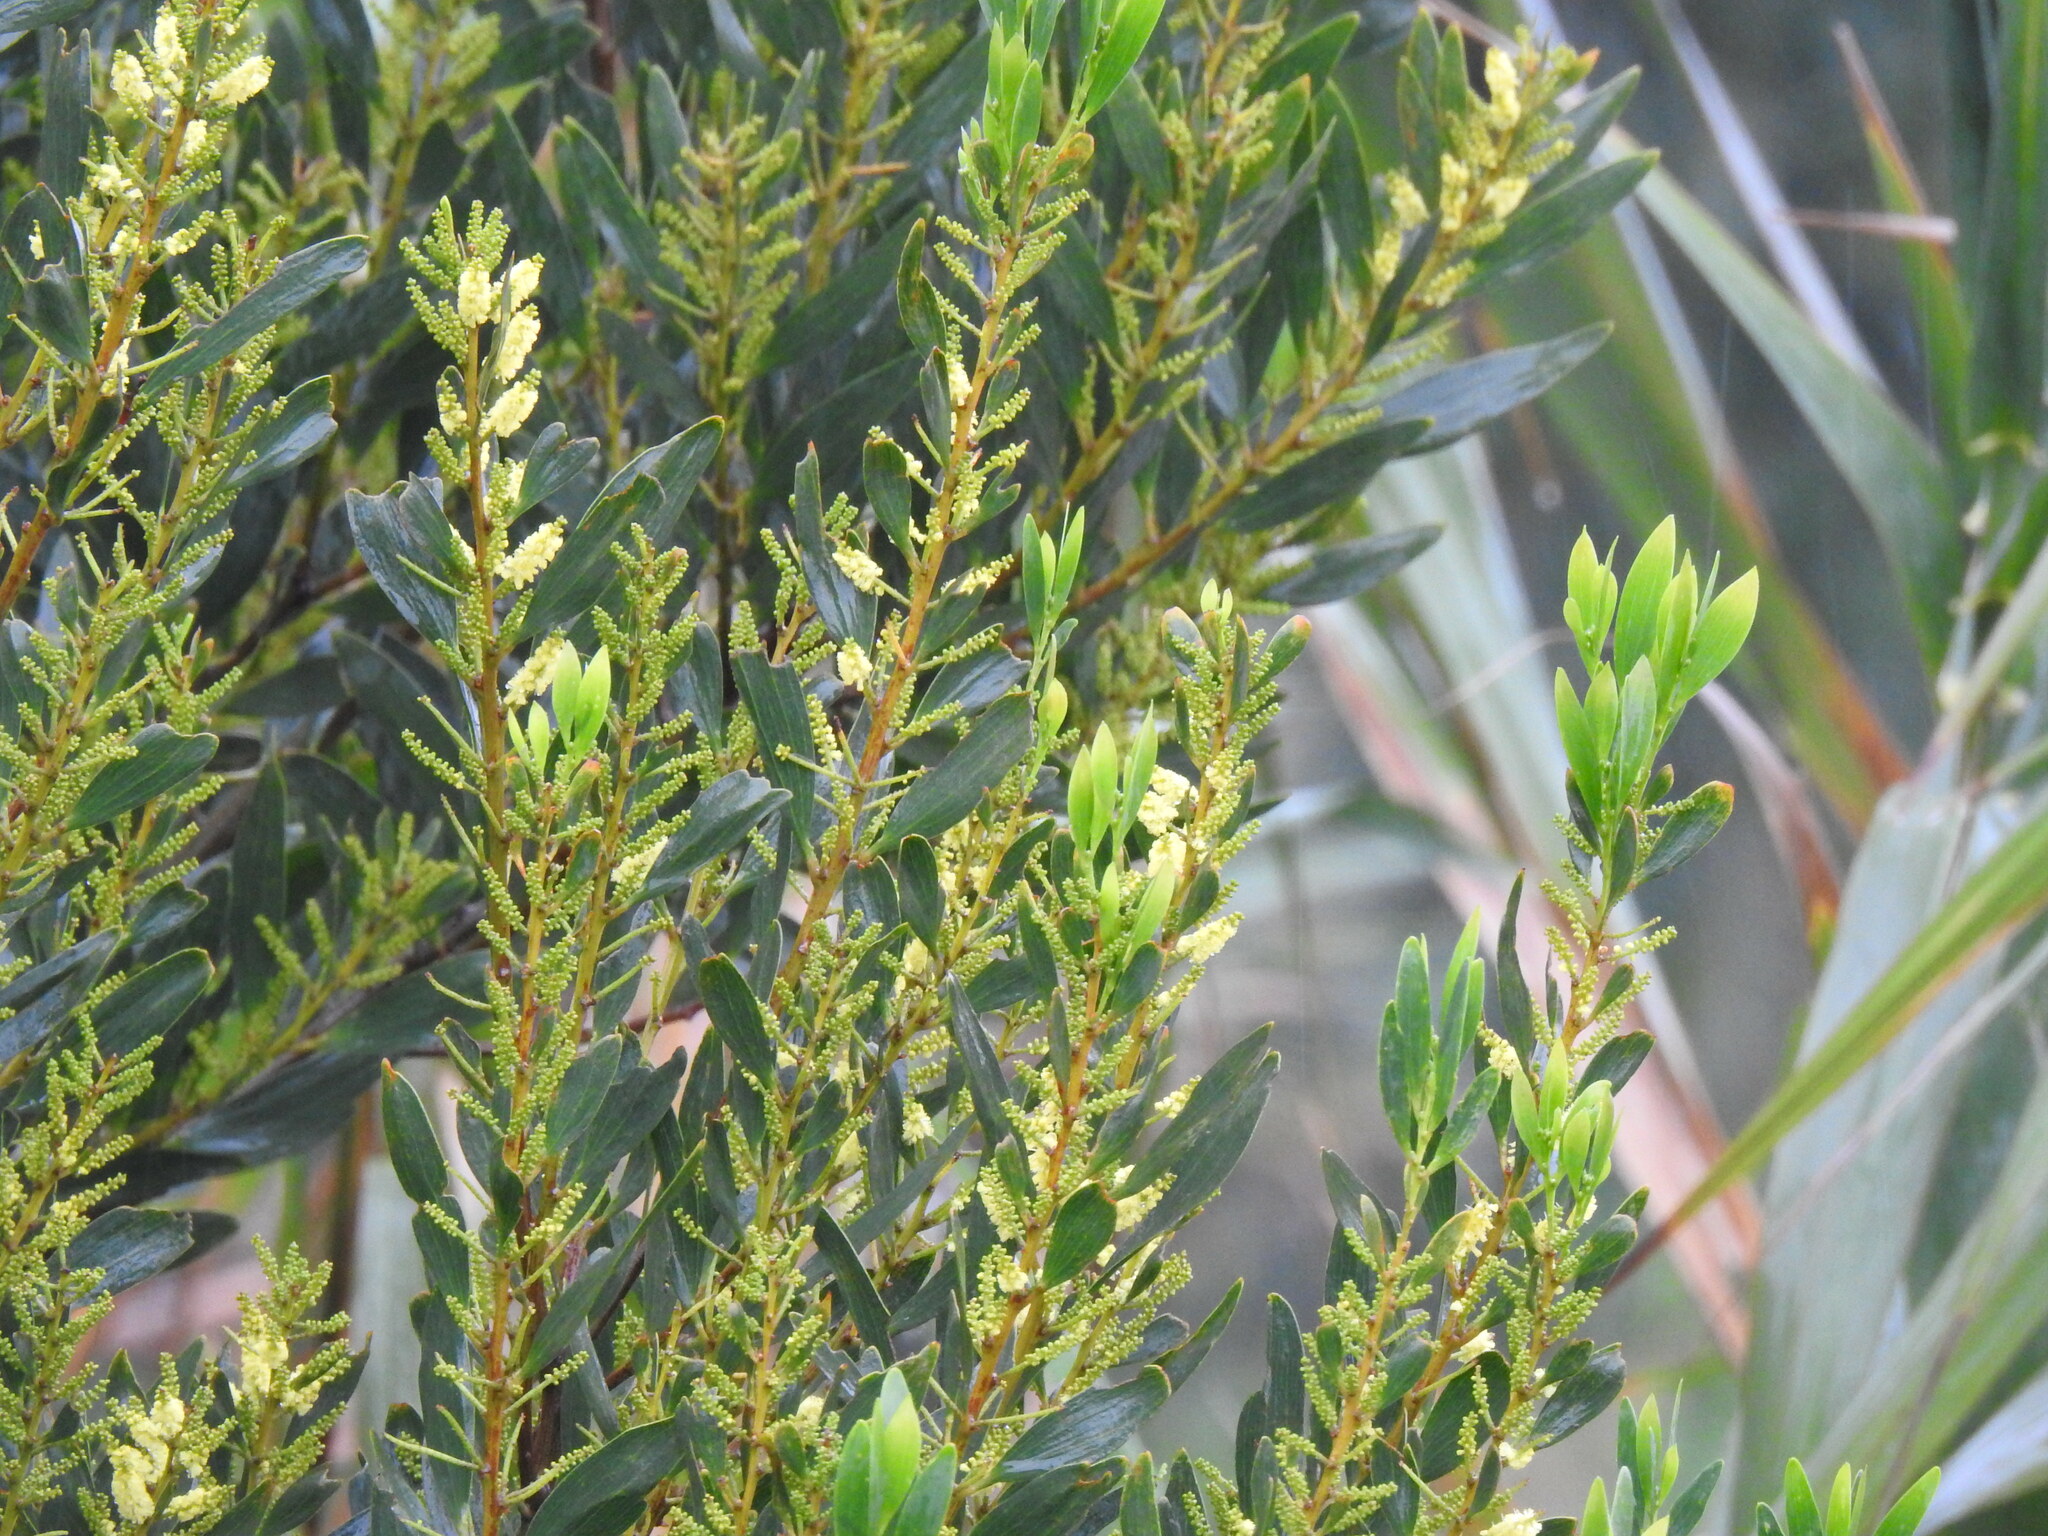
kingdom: Plantae
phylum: Tracheophyta
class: Magnoliopsida
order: Fabales
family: Fabaceae
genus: Acacia
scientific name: Acacia longifolia
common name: Sydney golden wattle
